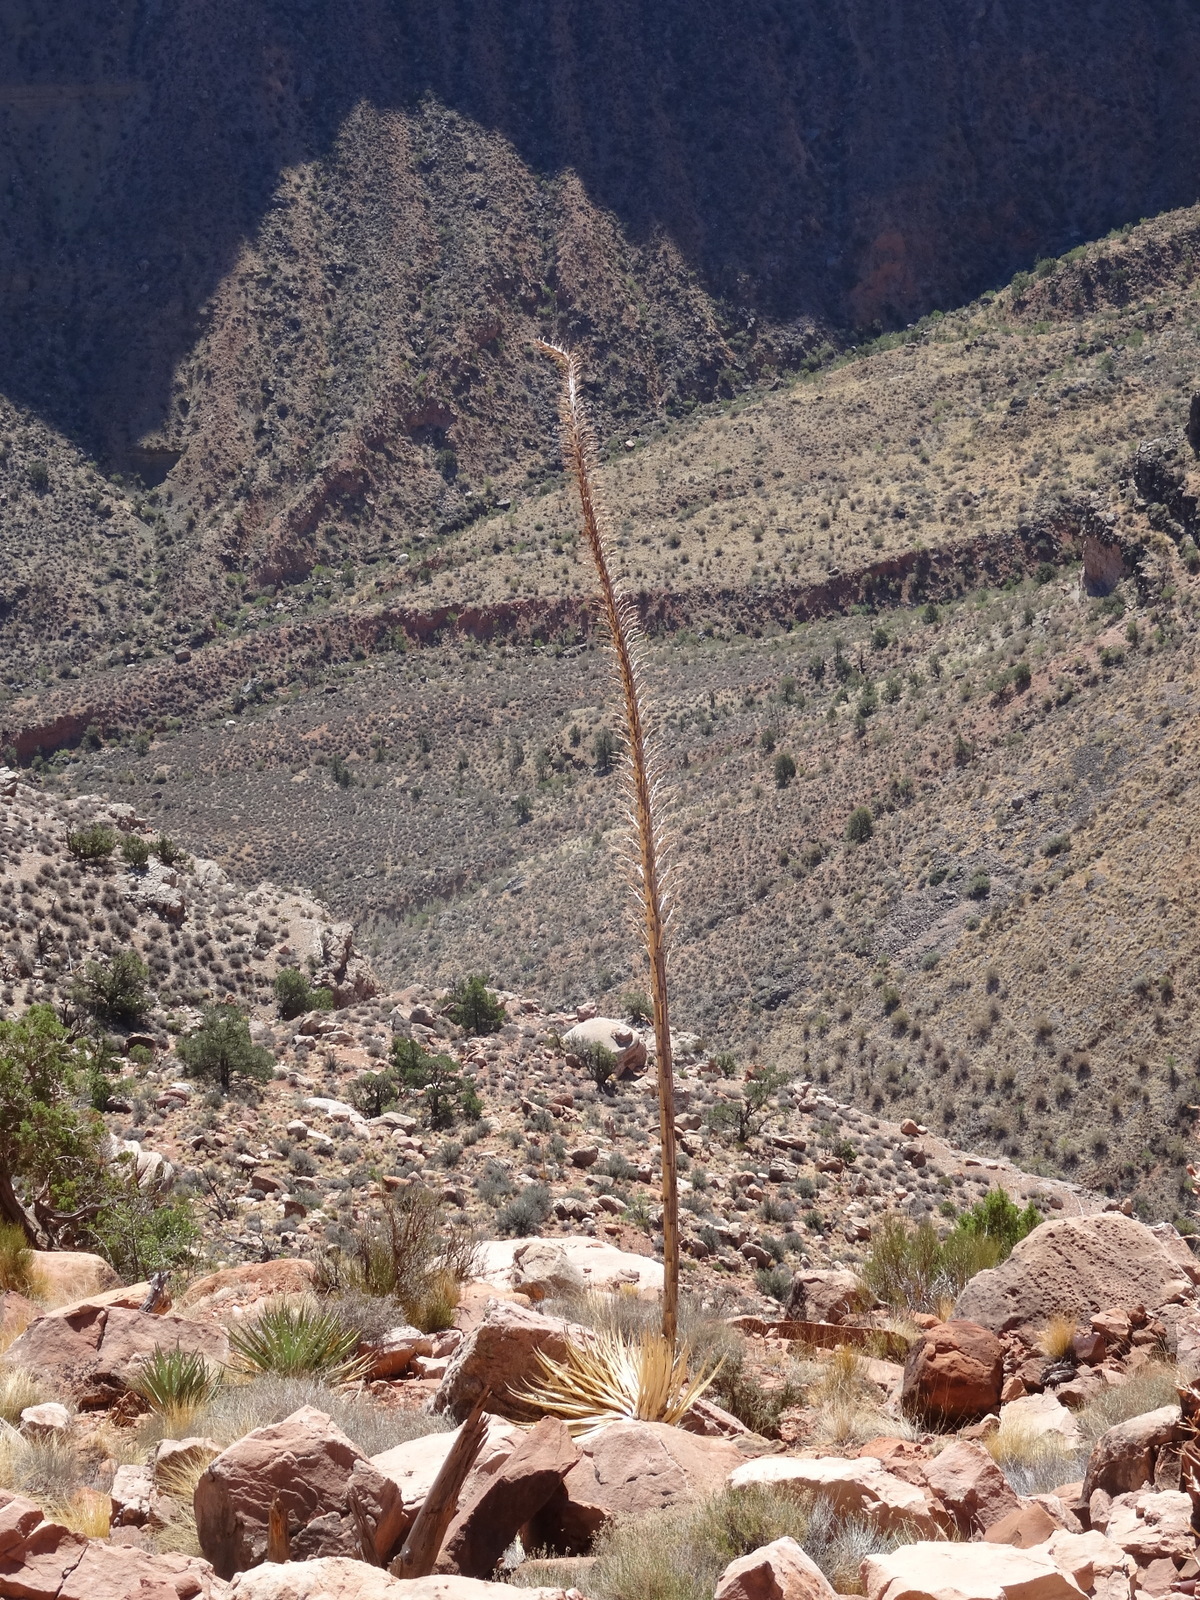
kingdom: Plantae
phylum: Tracheophyta
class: Liliopsida
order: Asparagales
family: Asparagaceae
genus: Agave
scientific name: Agave utahensis
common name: Utah agave
